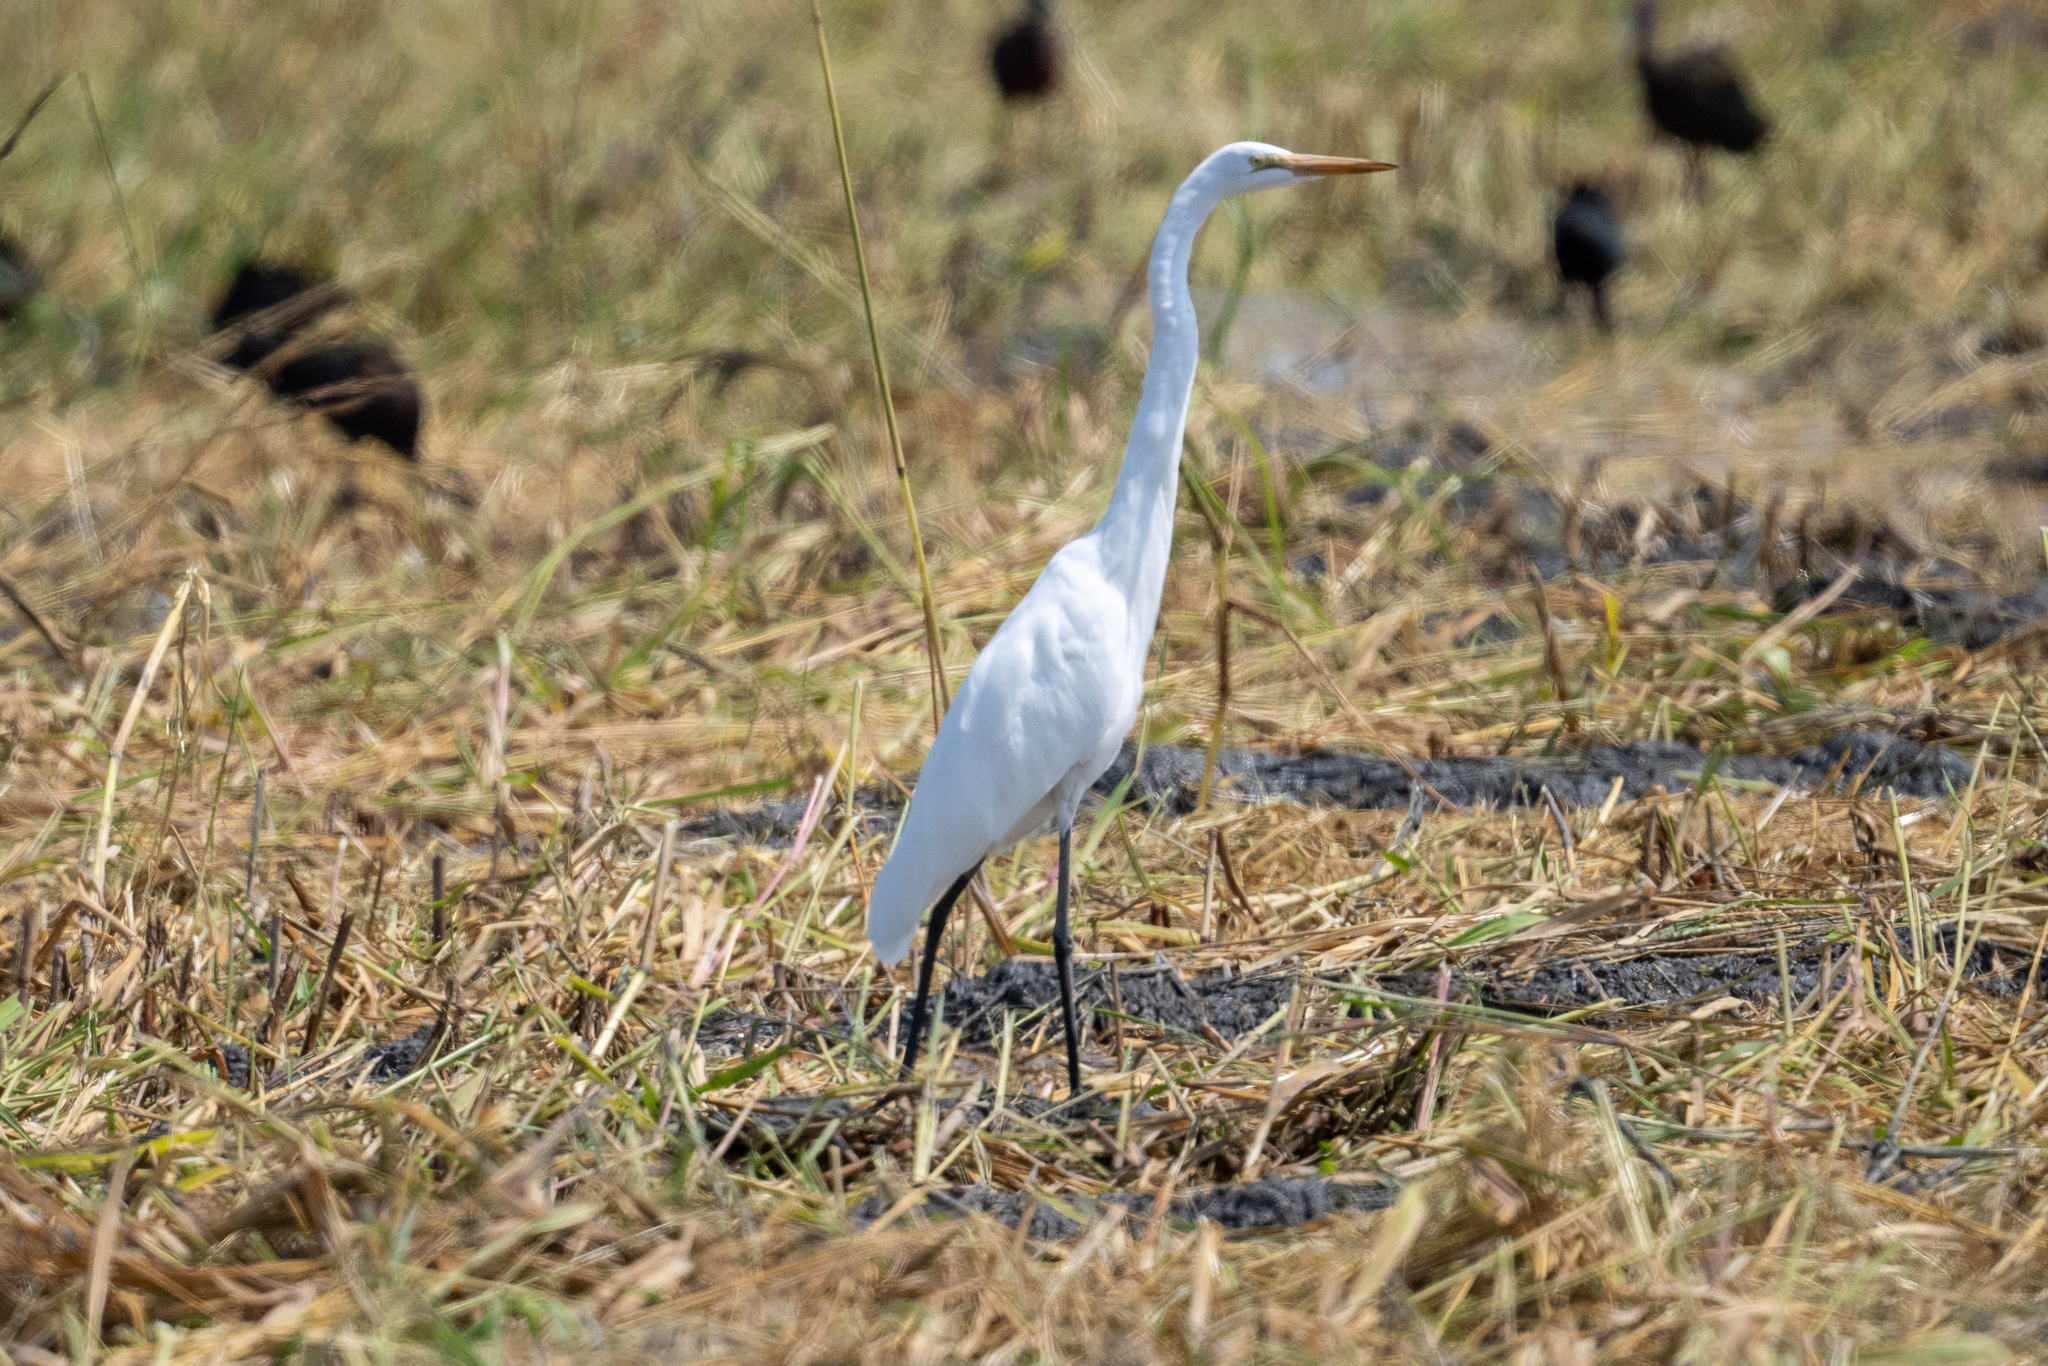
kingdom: Animalia
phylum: Chordata
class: Aves
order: Pelecaniformes
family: Ardeidae
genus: Ardea
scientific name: Ardea alba
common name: Great egret
